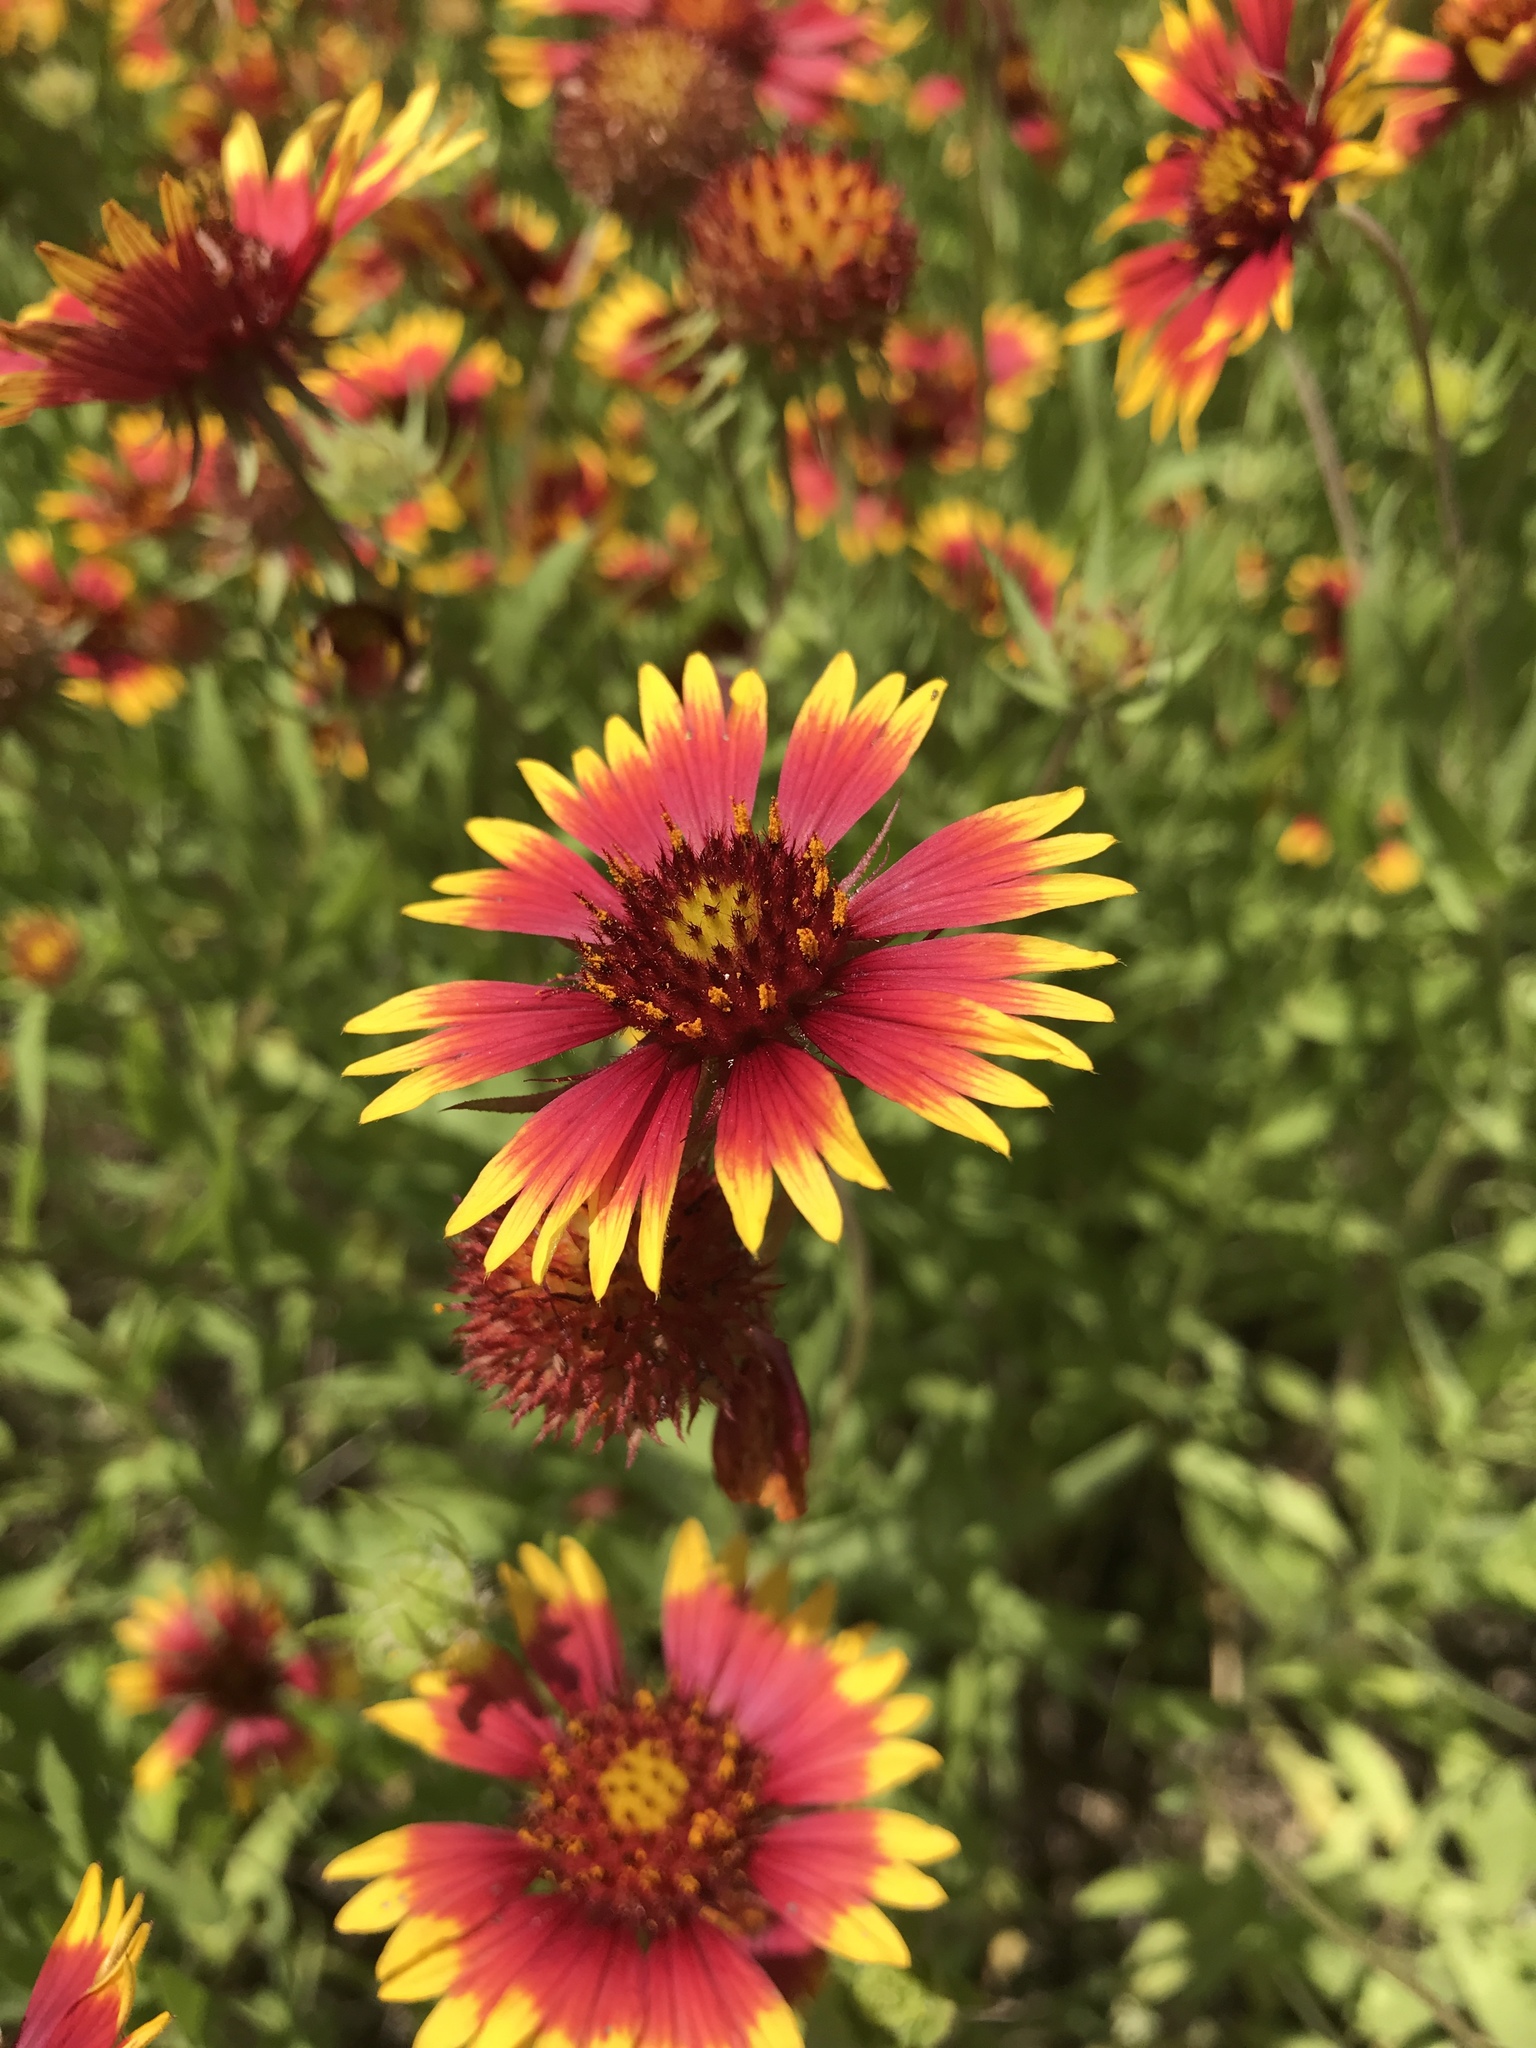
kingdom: Plantae
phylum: Tracheophyta
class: Magnoliopsida
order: Asterales
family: Asteraceae
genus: Gaillardia
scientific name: Gaillardia pulchella
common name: Firewheel
